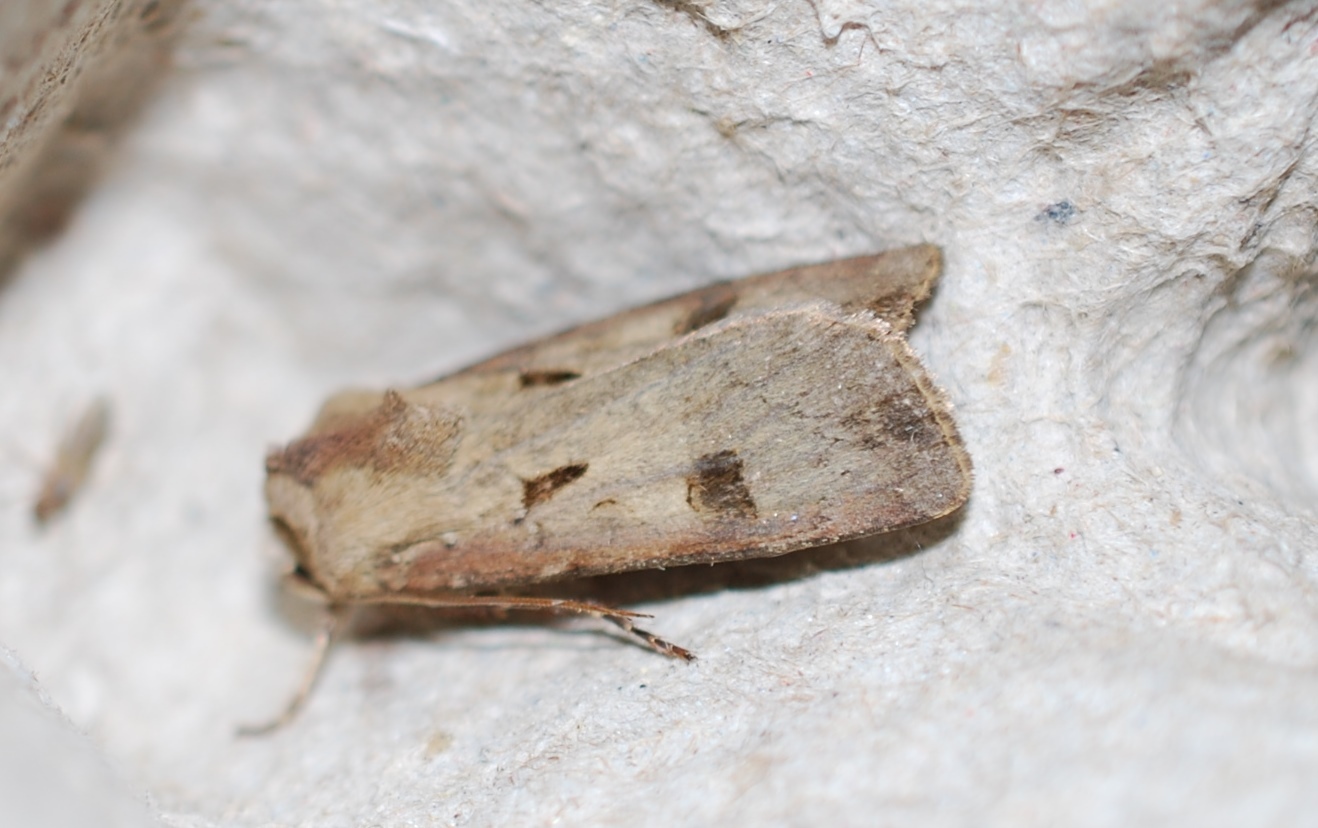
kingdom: Animalia
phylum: Arthropoda
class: Insecta
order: Lepidoptera
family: Noctuidae
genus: Agrotis
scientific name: Agrotis exclamationis
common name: Heart and dart
